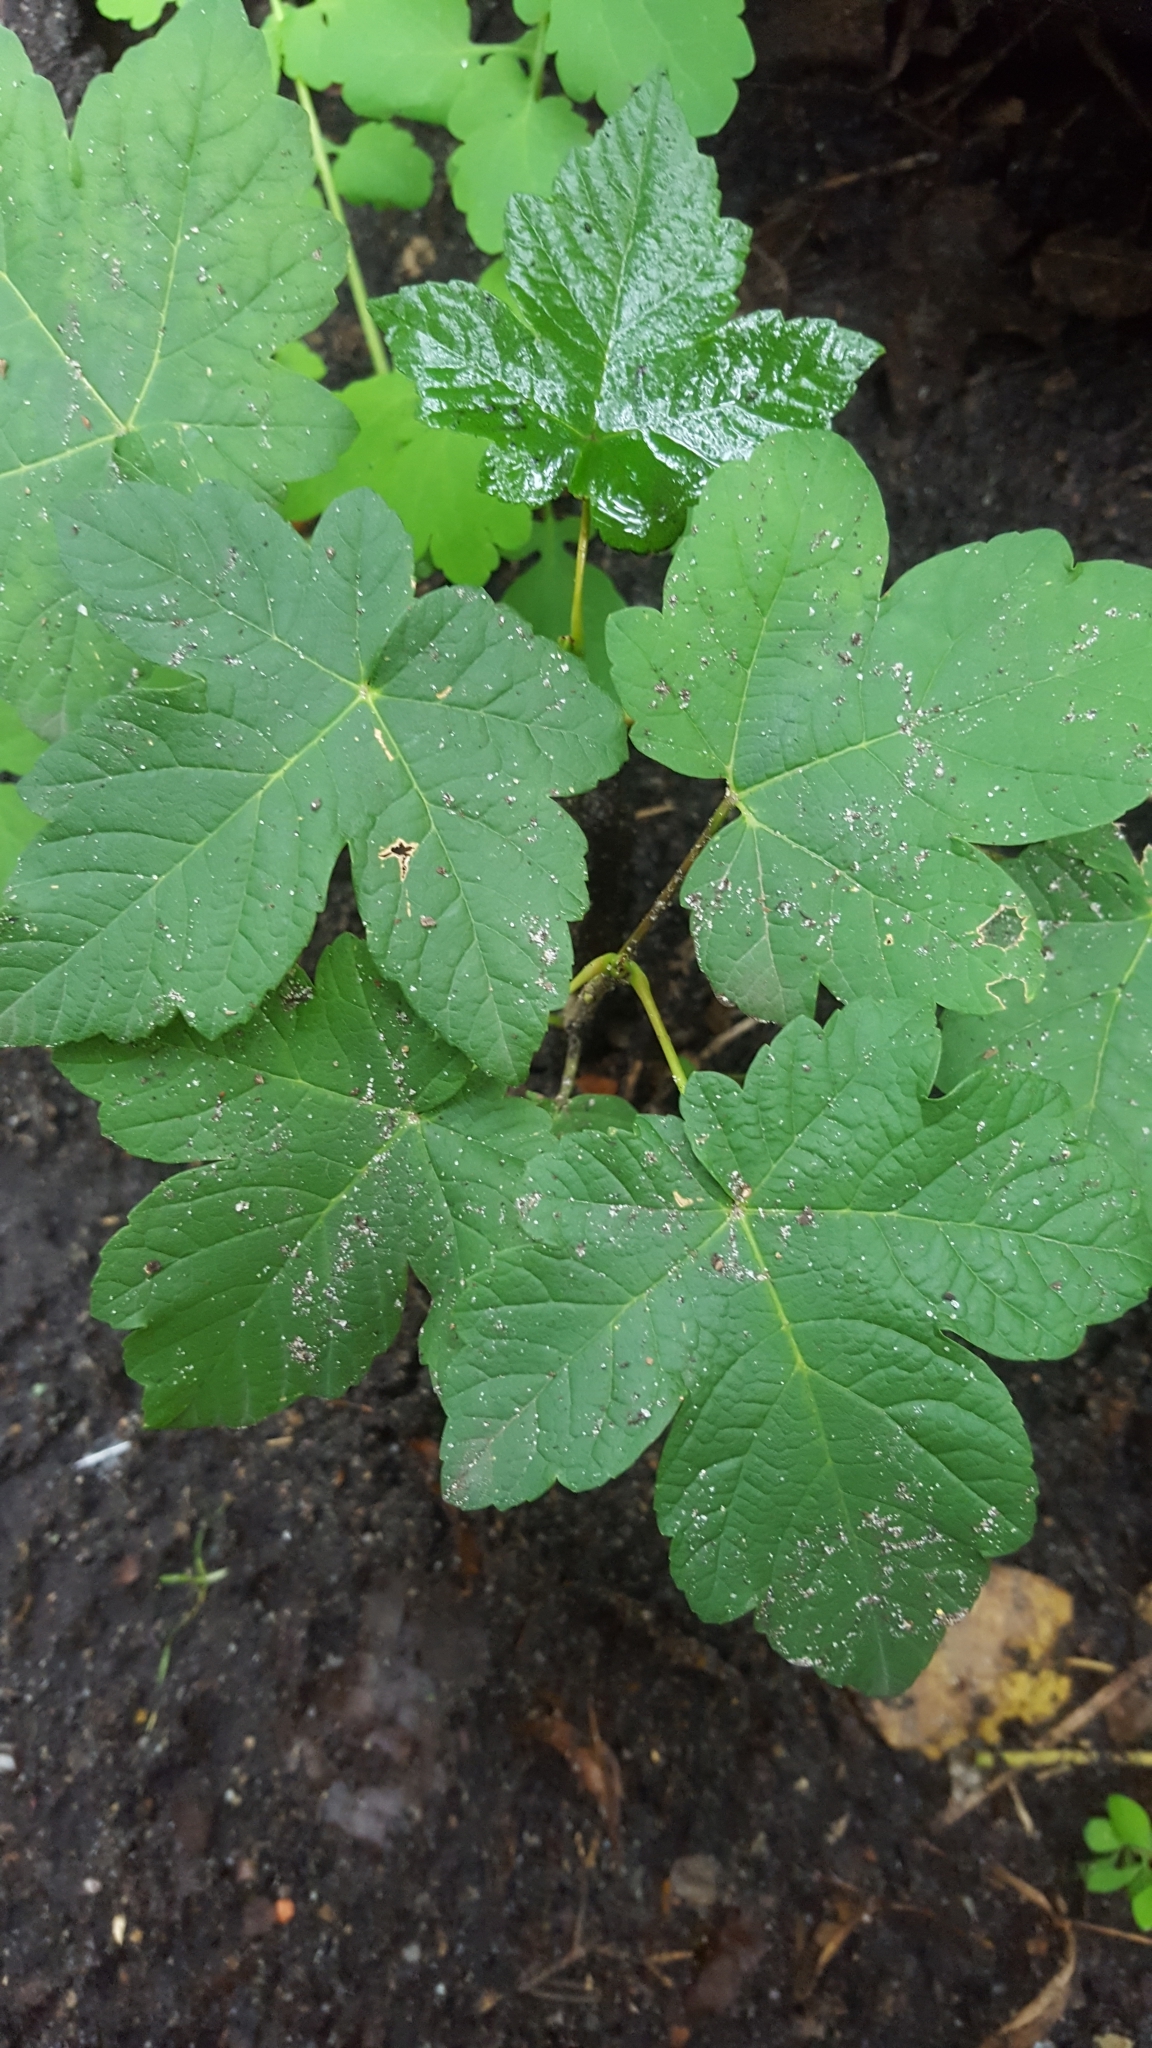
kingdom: Plantae
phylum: Tracheophyta
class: Magnoliopsida
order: Sapindales
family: Sapindaceae
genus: Acer
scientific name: Acer pseudoplatanus
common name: Sycamore
